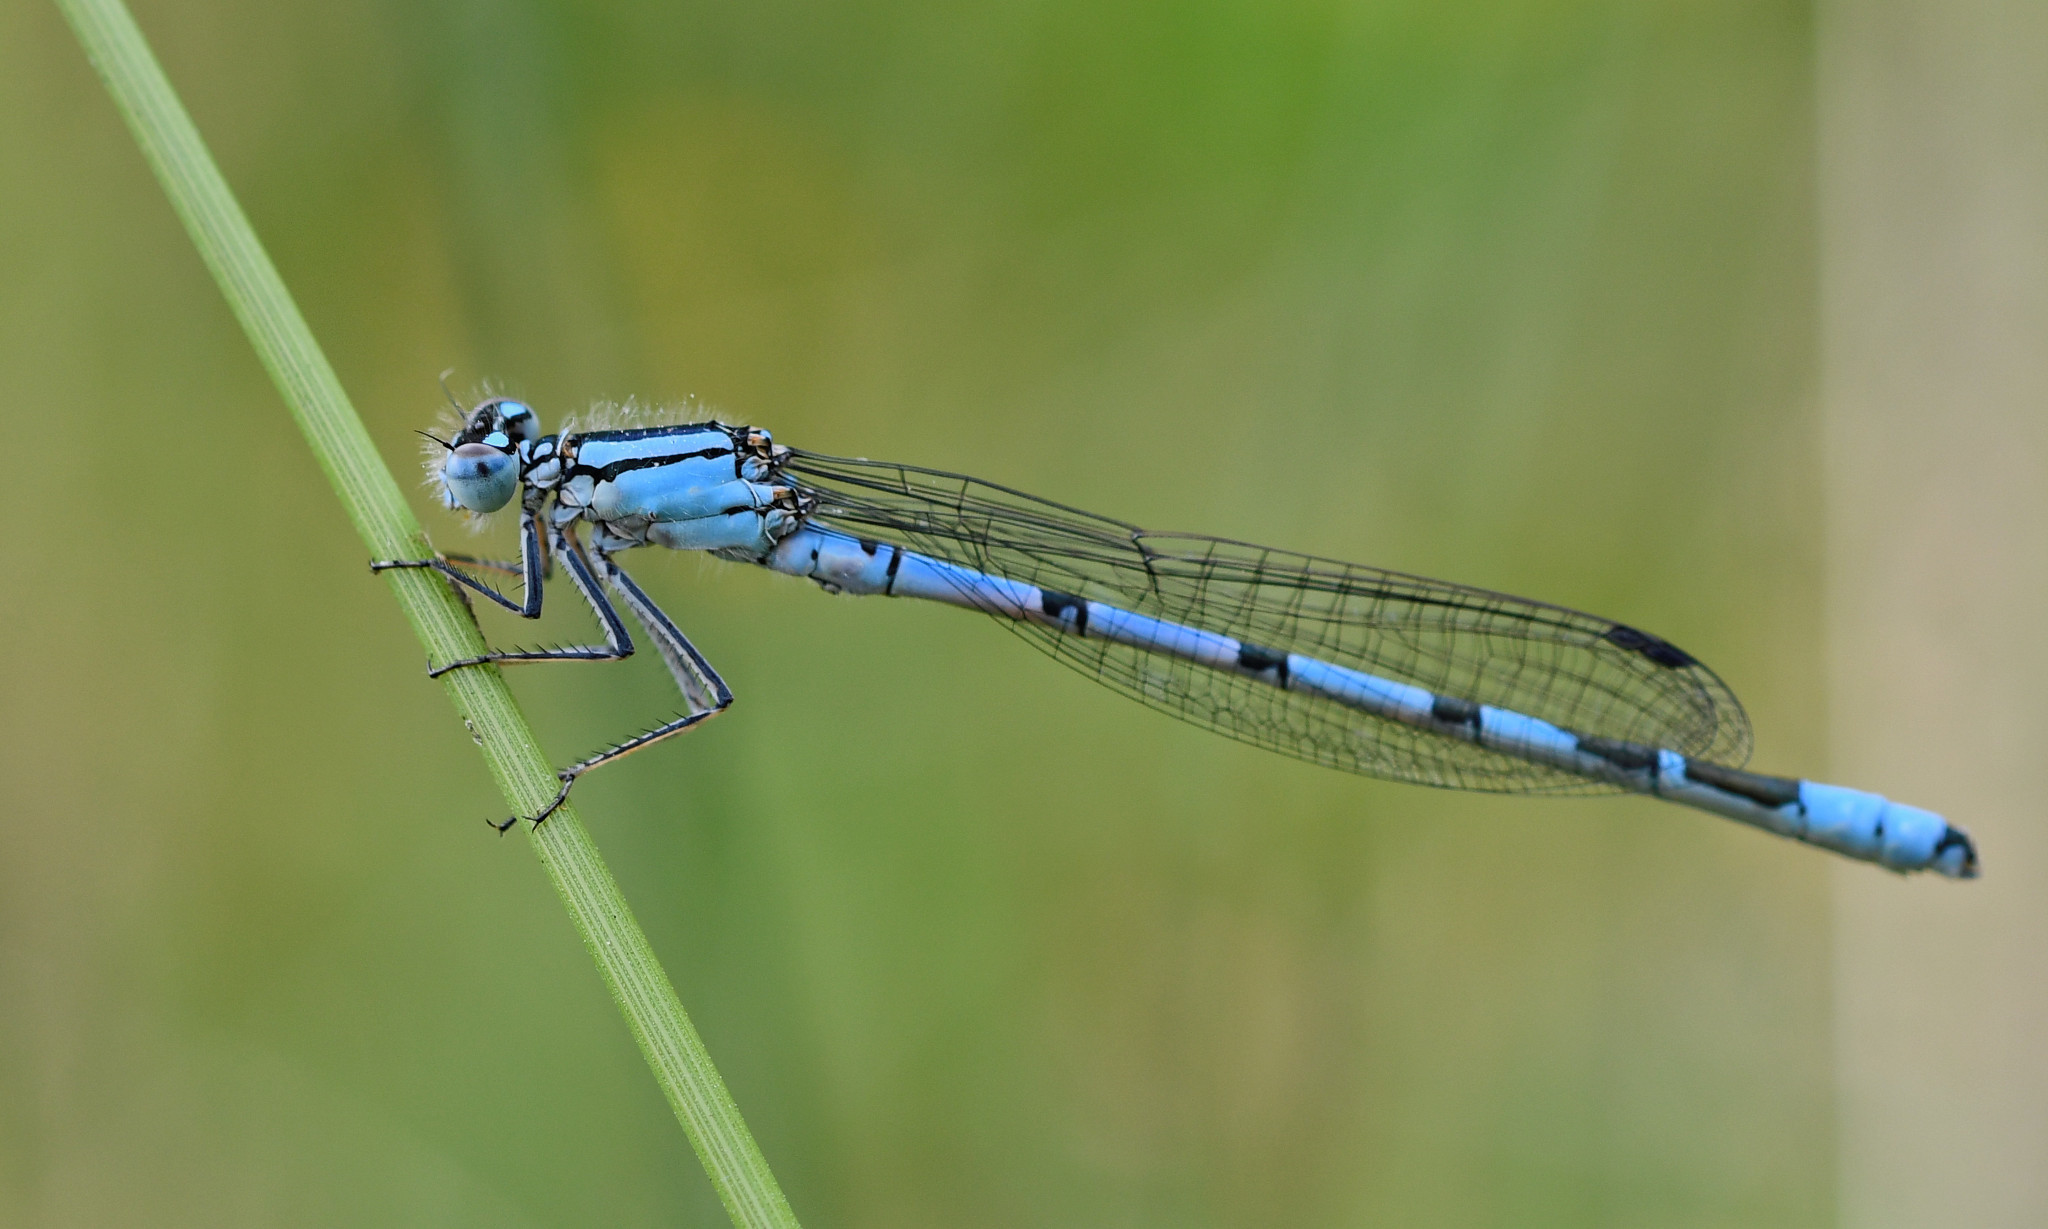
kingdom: Animalia
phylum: Arthropoda
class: Insecta
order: Odonata
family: Coenagrionidae
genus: Enallagma
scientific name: Enallagma cyathigerum
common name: Common blue damselfly
